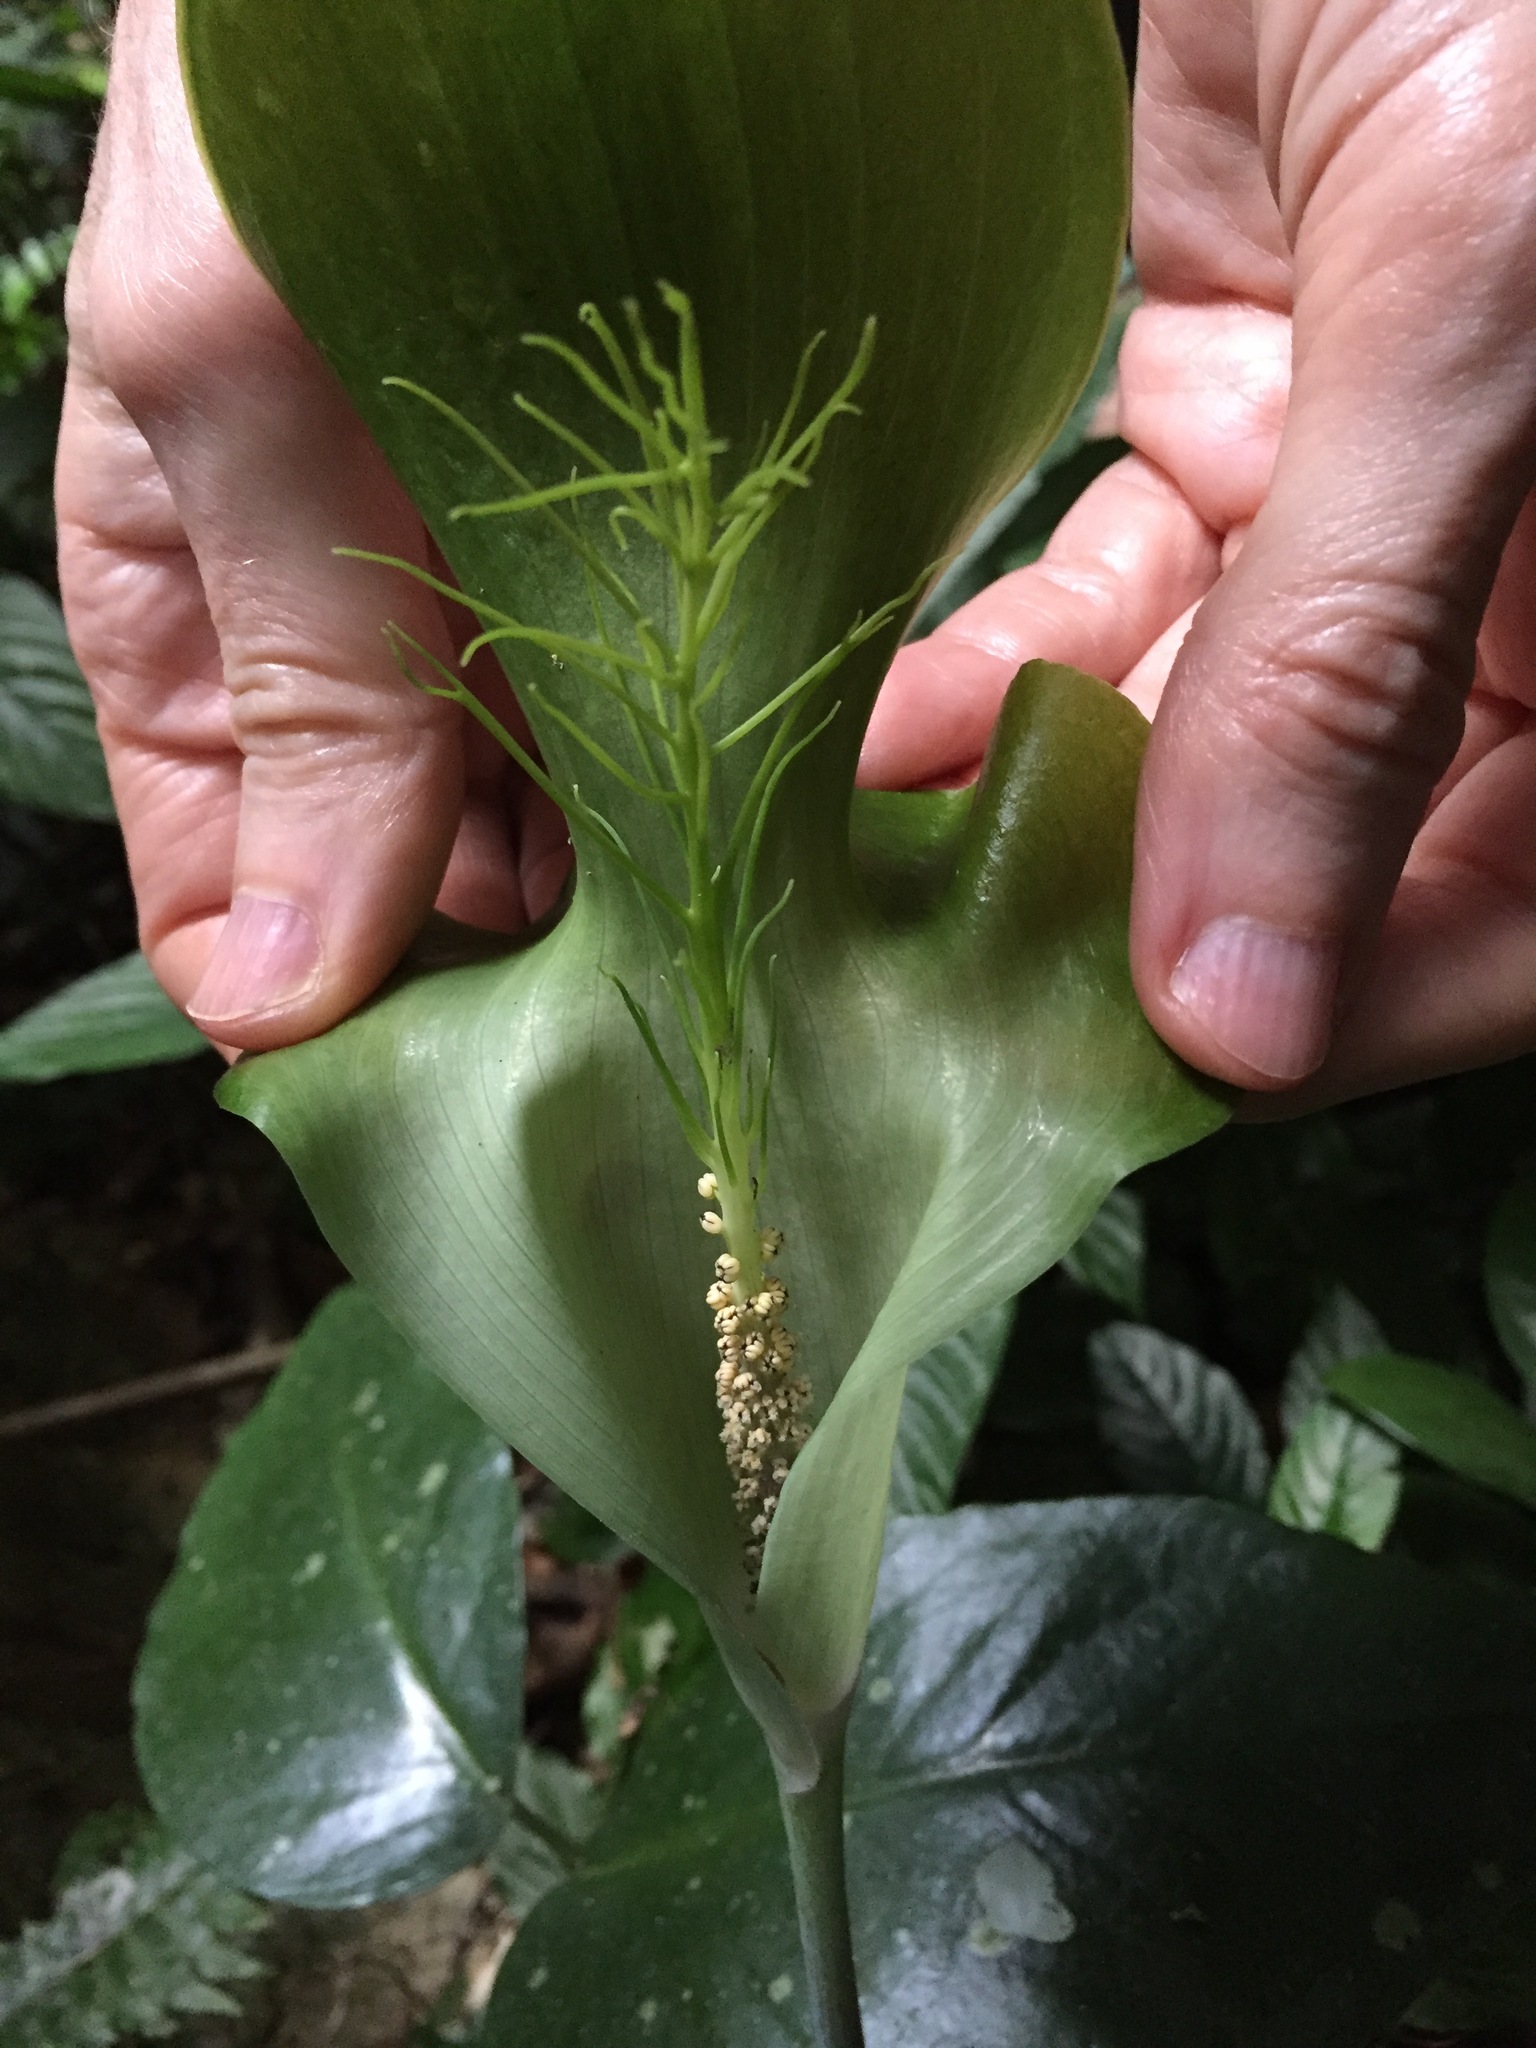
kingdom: Plantae
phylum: Tracheophyta
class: Liliopsida
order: Alismatales
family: Araceae
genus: Arisaema
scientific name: Arisaema balansae
